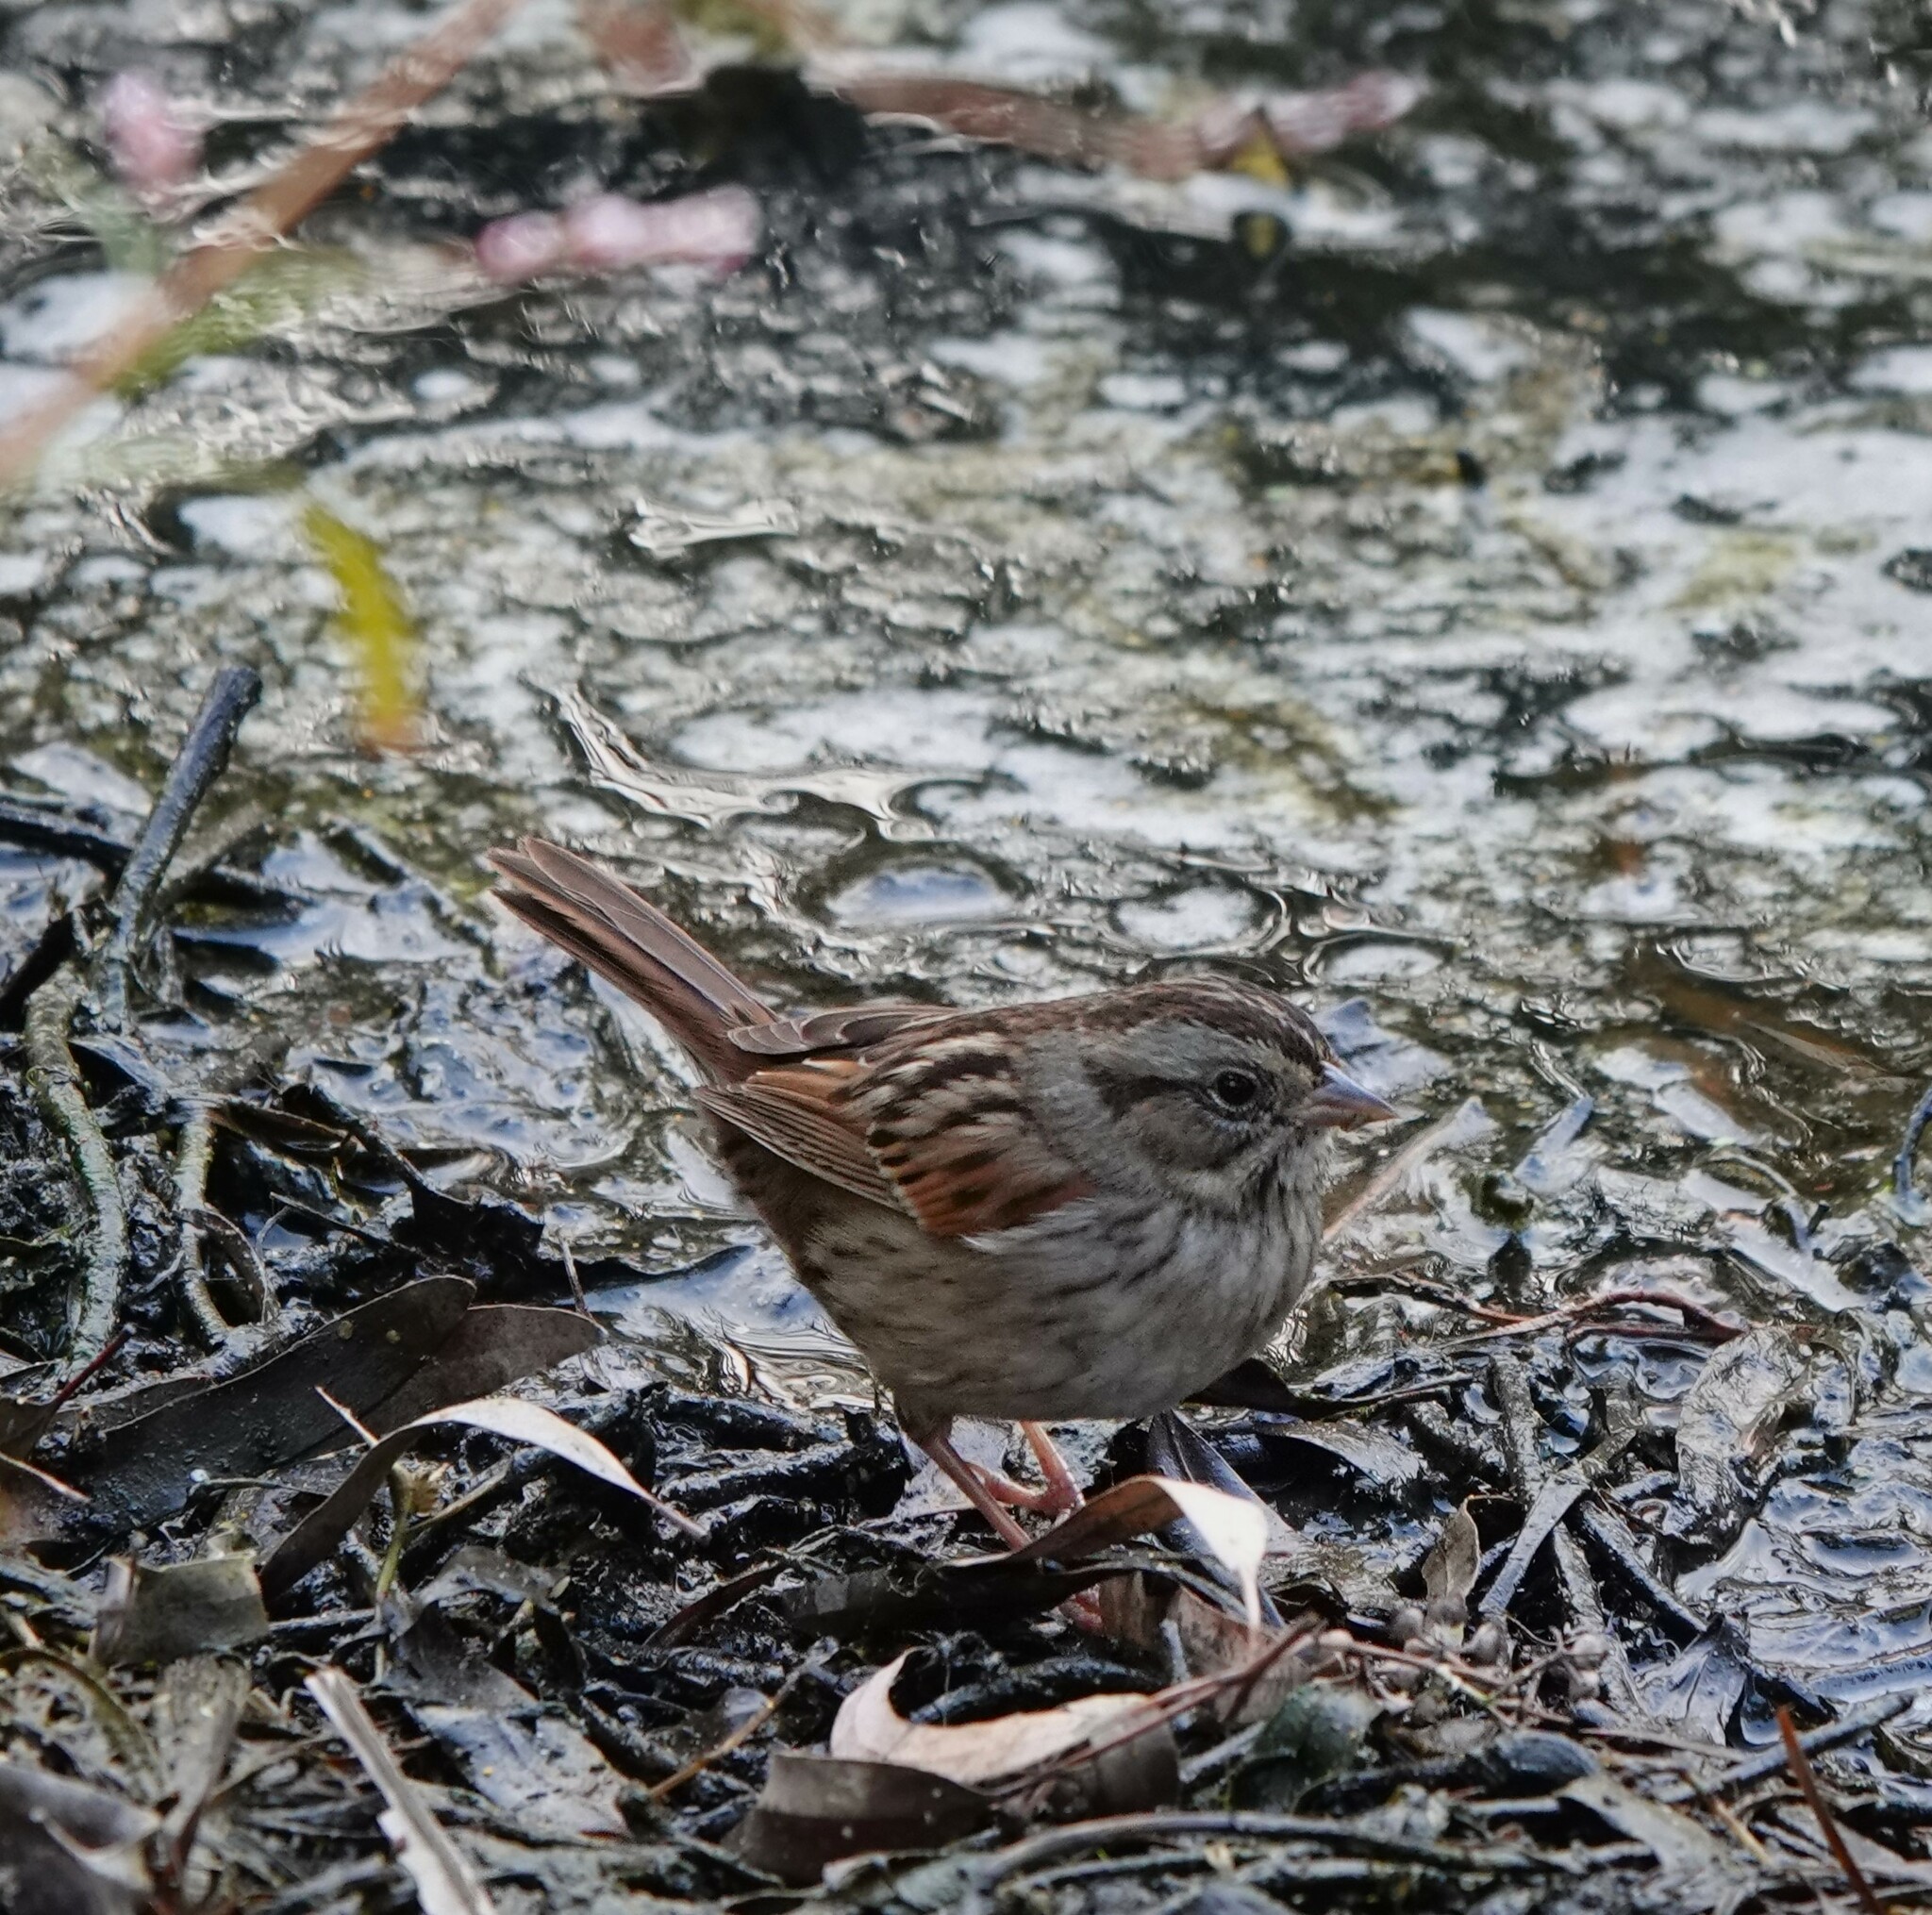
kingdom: Animalia
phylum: Chordata
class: Aves
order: Passeriformes
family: Passerellidae
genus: Melospiza
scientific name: Melospiza georgiana
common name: Swamp sparrow
